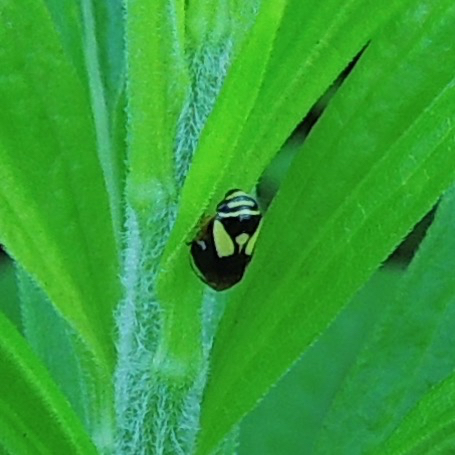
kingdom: Animalia
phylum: Arthropoda
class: Insecta
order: Hemiptera
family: Clastopteridae
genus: Clastoptera
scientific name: Clastoptera proteus
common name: Dogwood spittlebug
